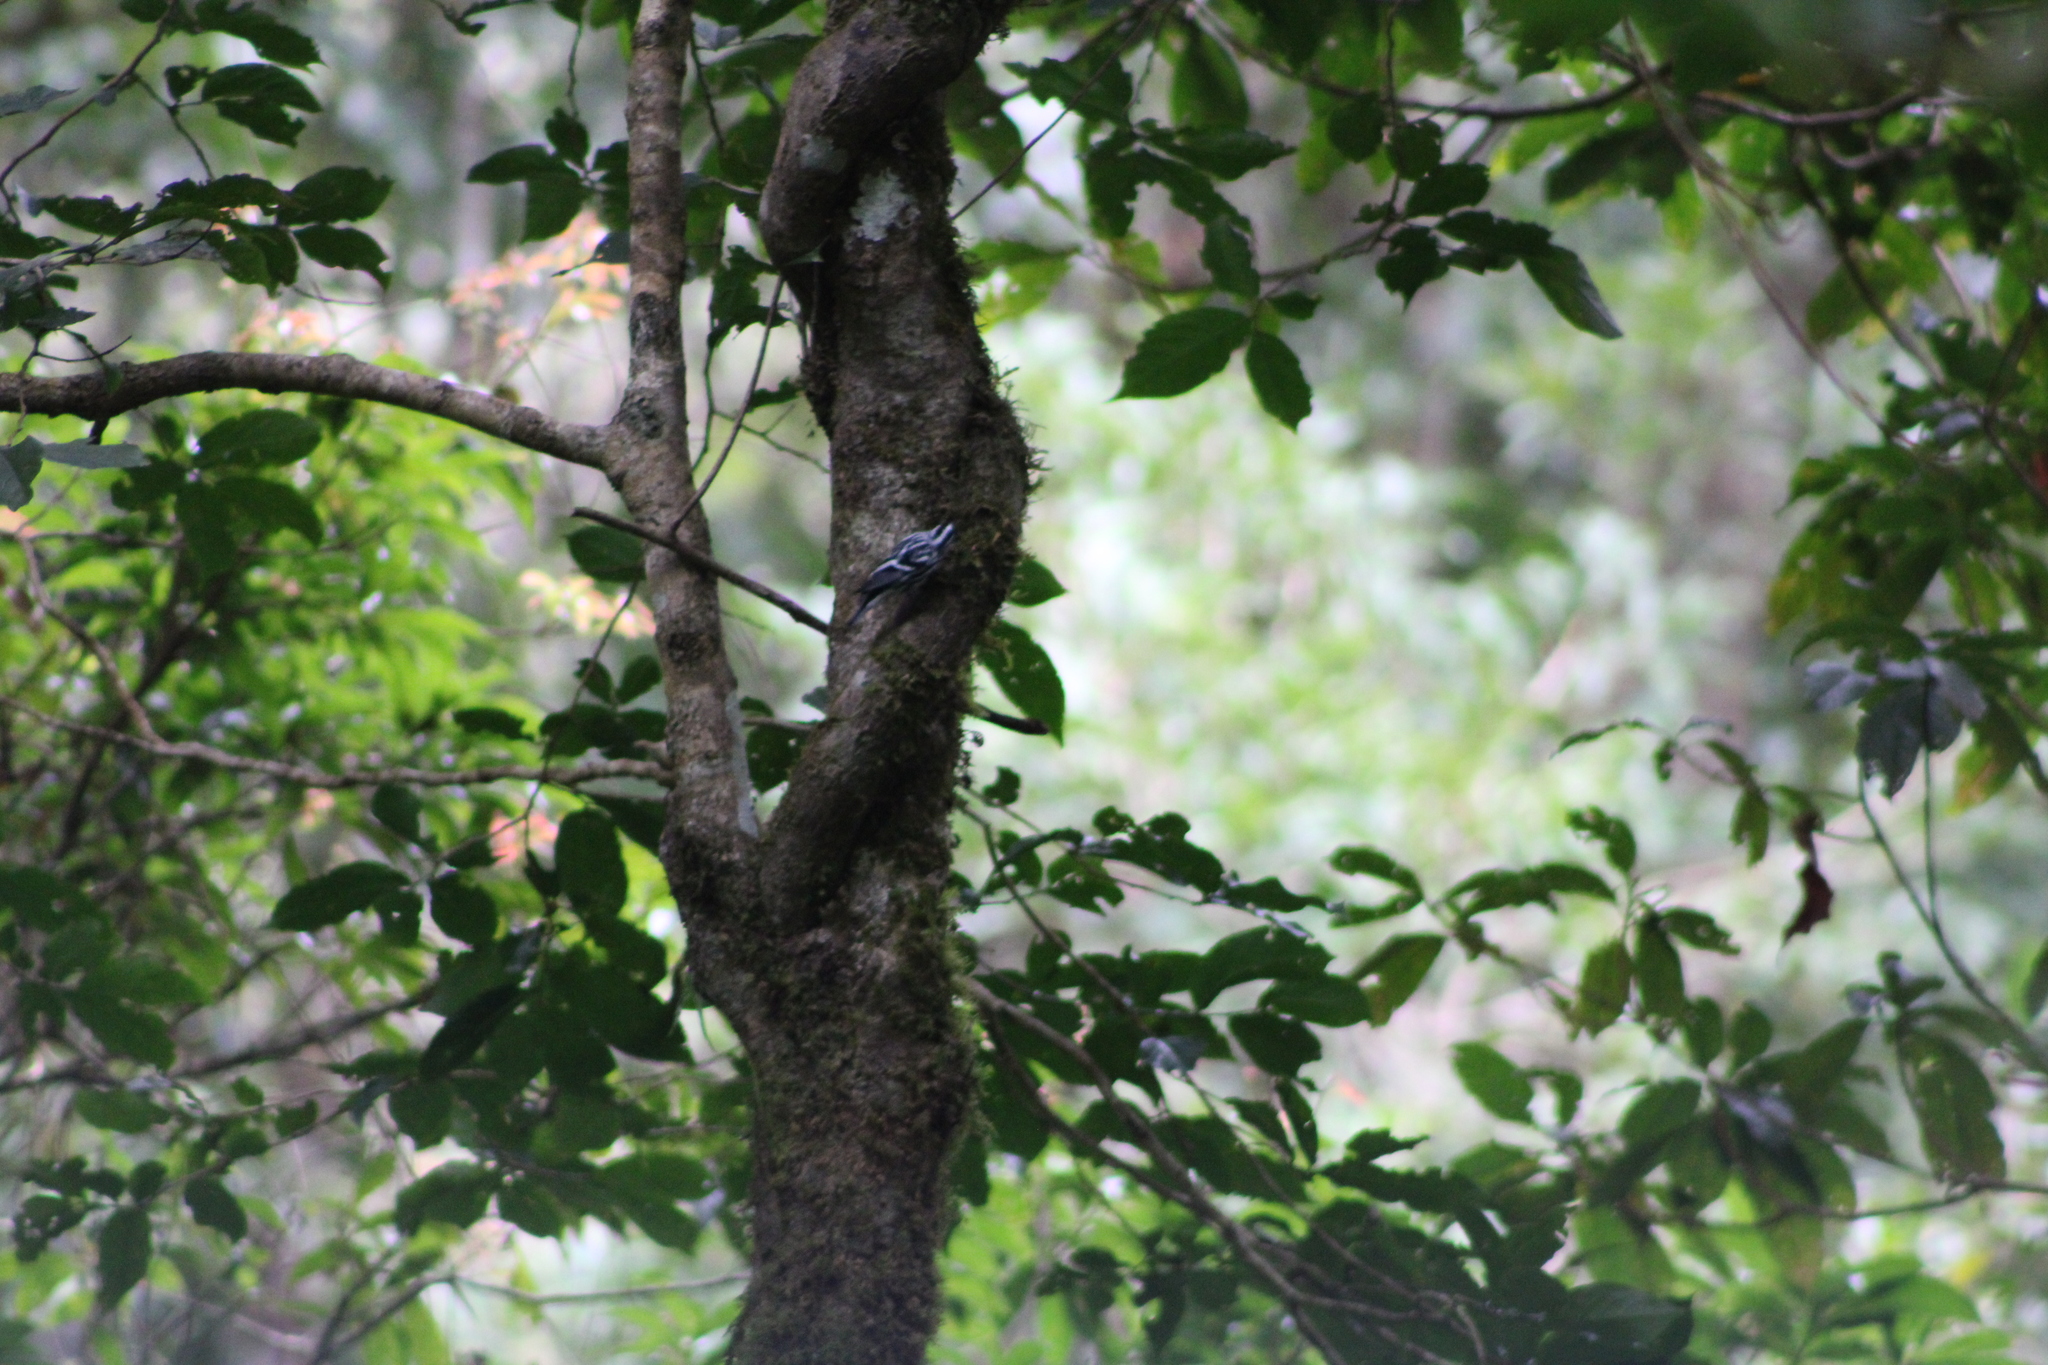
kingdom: Animalia
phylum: Chordata
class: Aves
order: Passeriformes
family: Parulidae
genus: Mniotilta
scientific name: Mniotilta varia
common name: Black-and-white warbler
